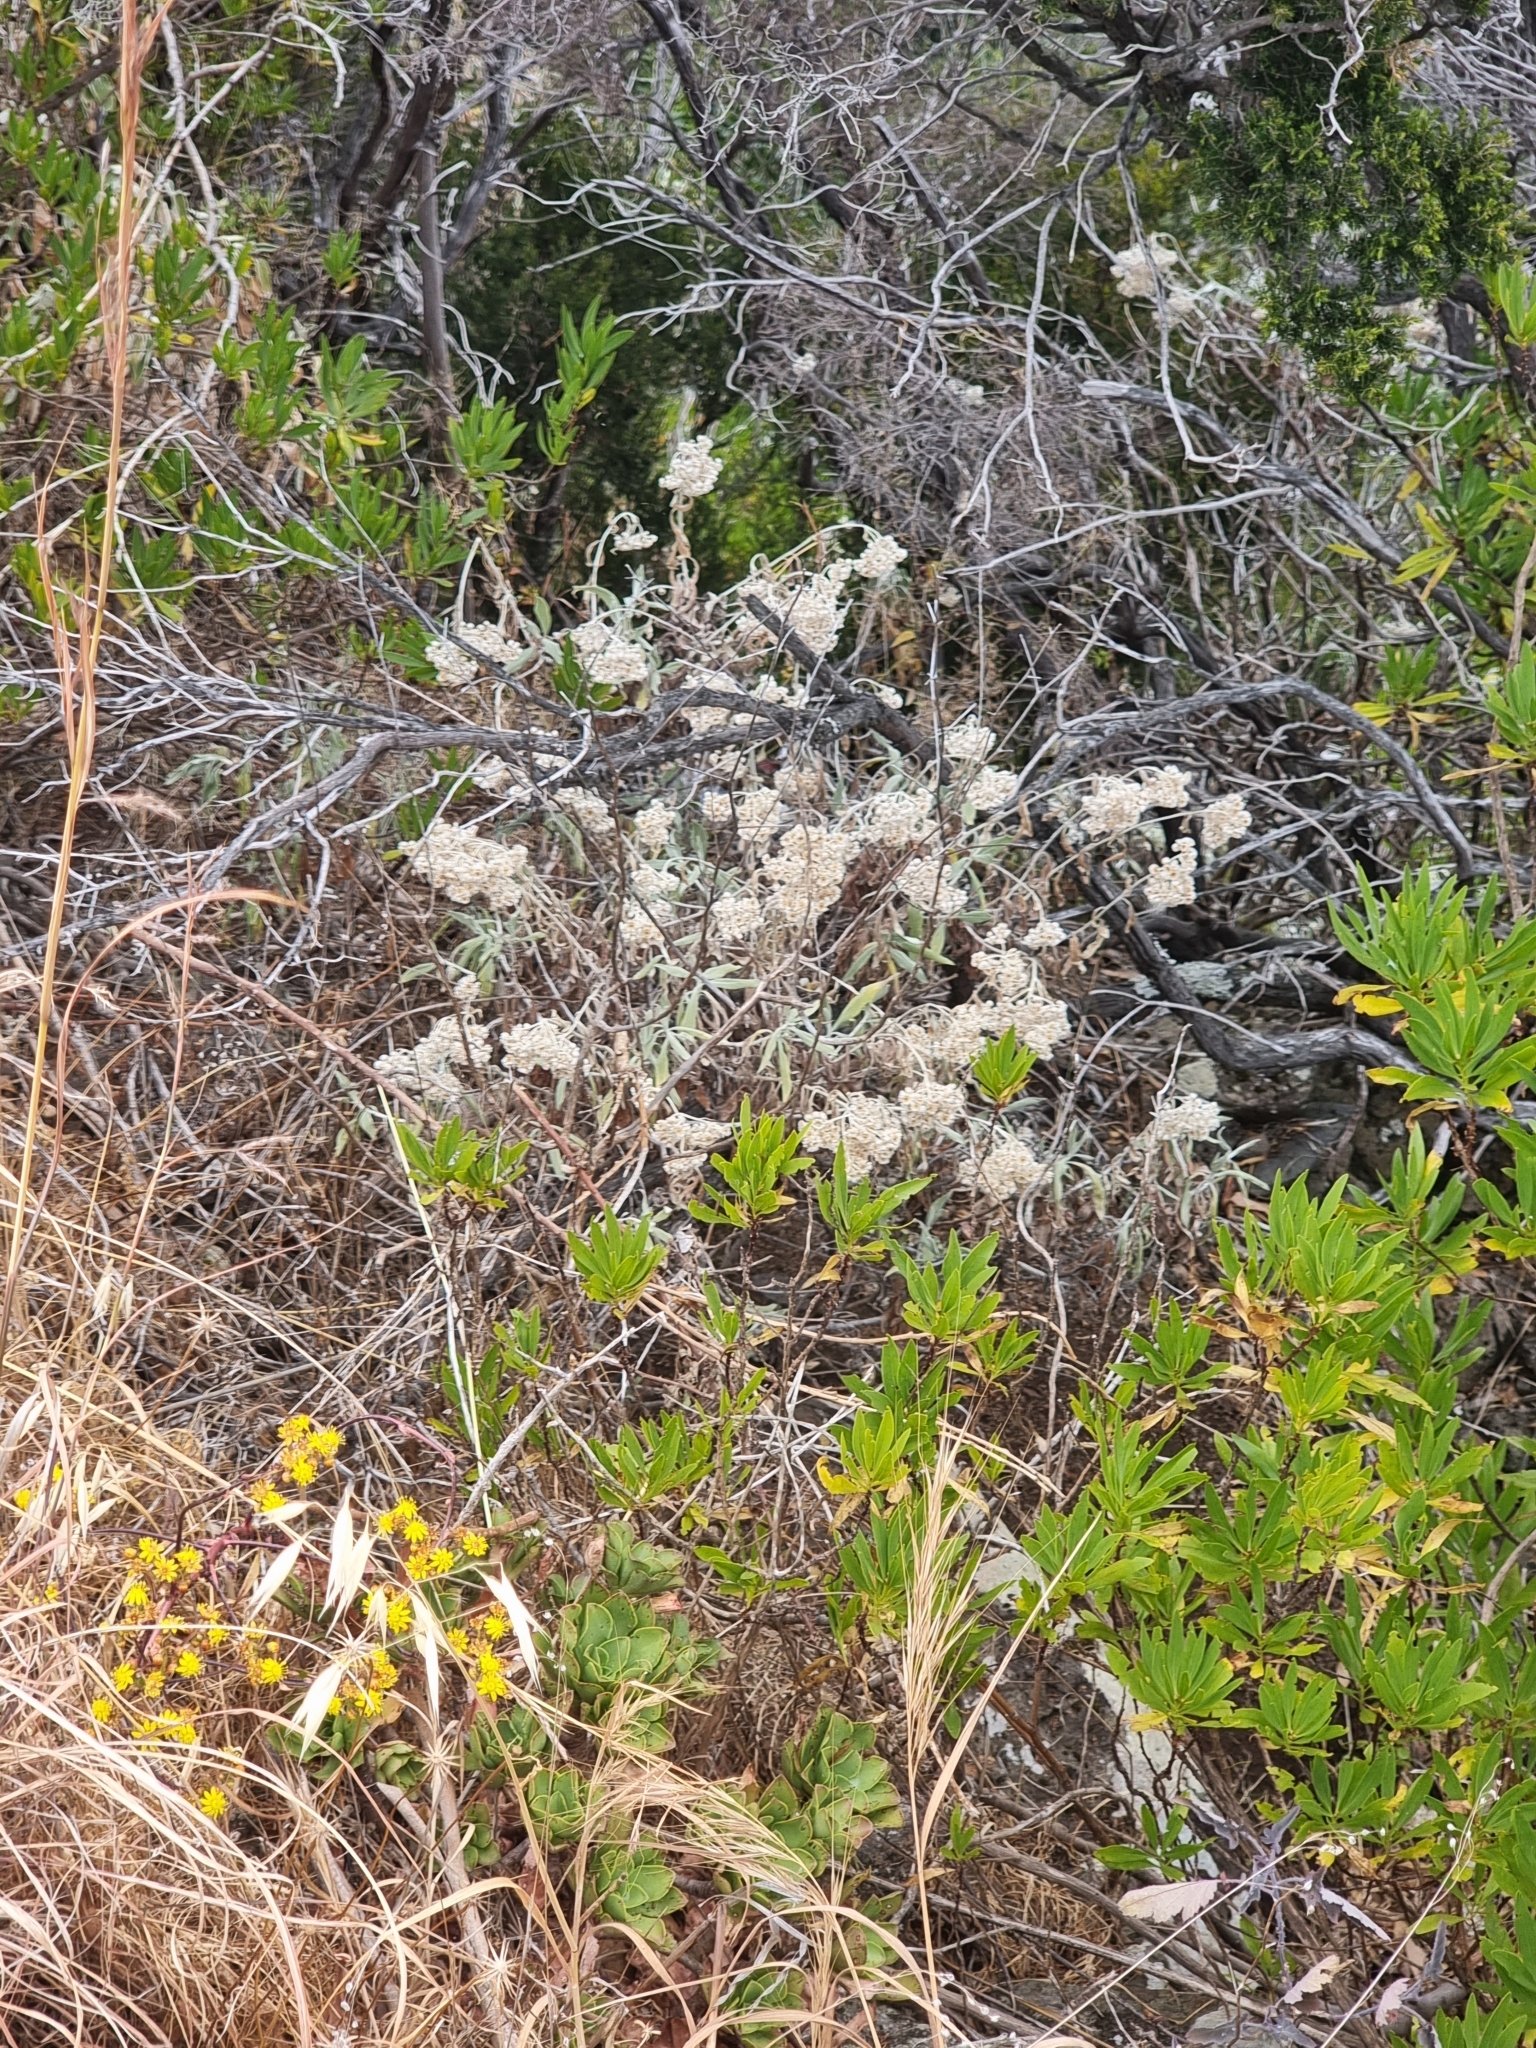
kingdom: Plantae
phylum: Tracheophyta
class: Magnoliopsida
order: Asterales
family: Asteraceae
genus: Helichrysum
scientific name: Helichrysum melaleucum
